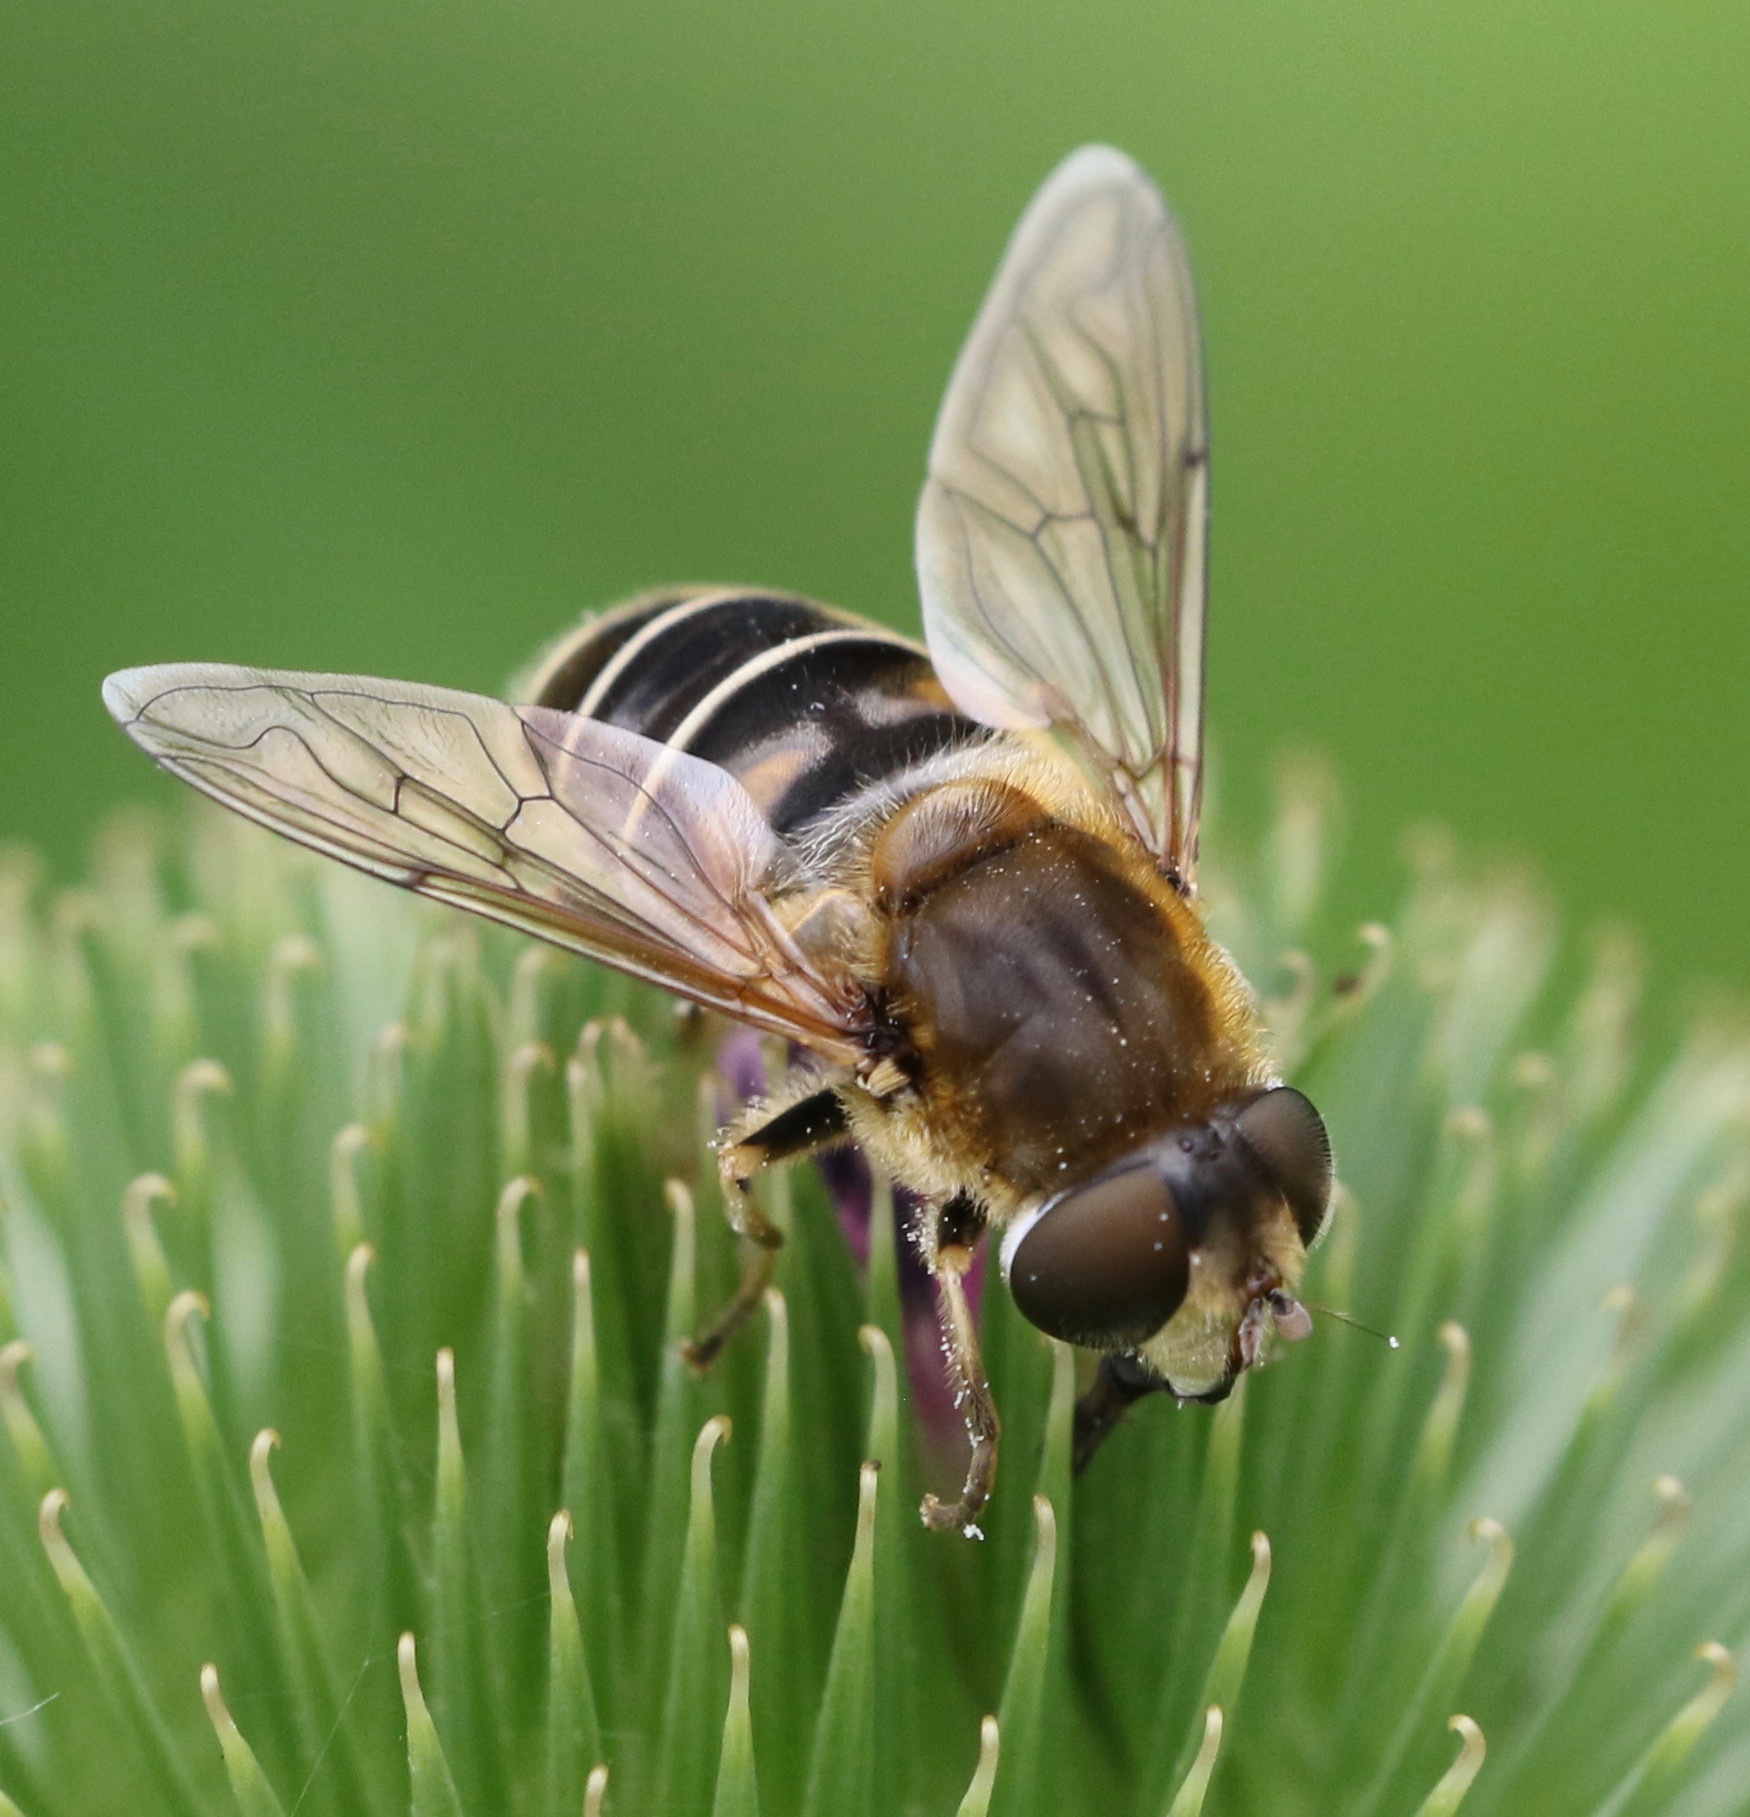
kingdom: Animalia
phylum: Arthropoda
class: Insecta
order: Diptera
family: Syrphidae
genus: Eristalis
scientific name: Eristalis nemorum
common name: Orange-spined drone fly
